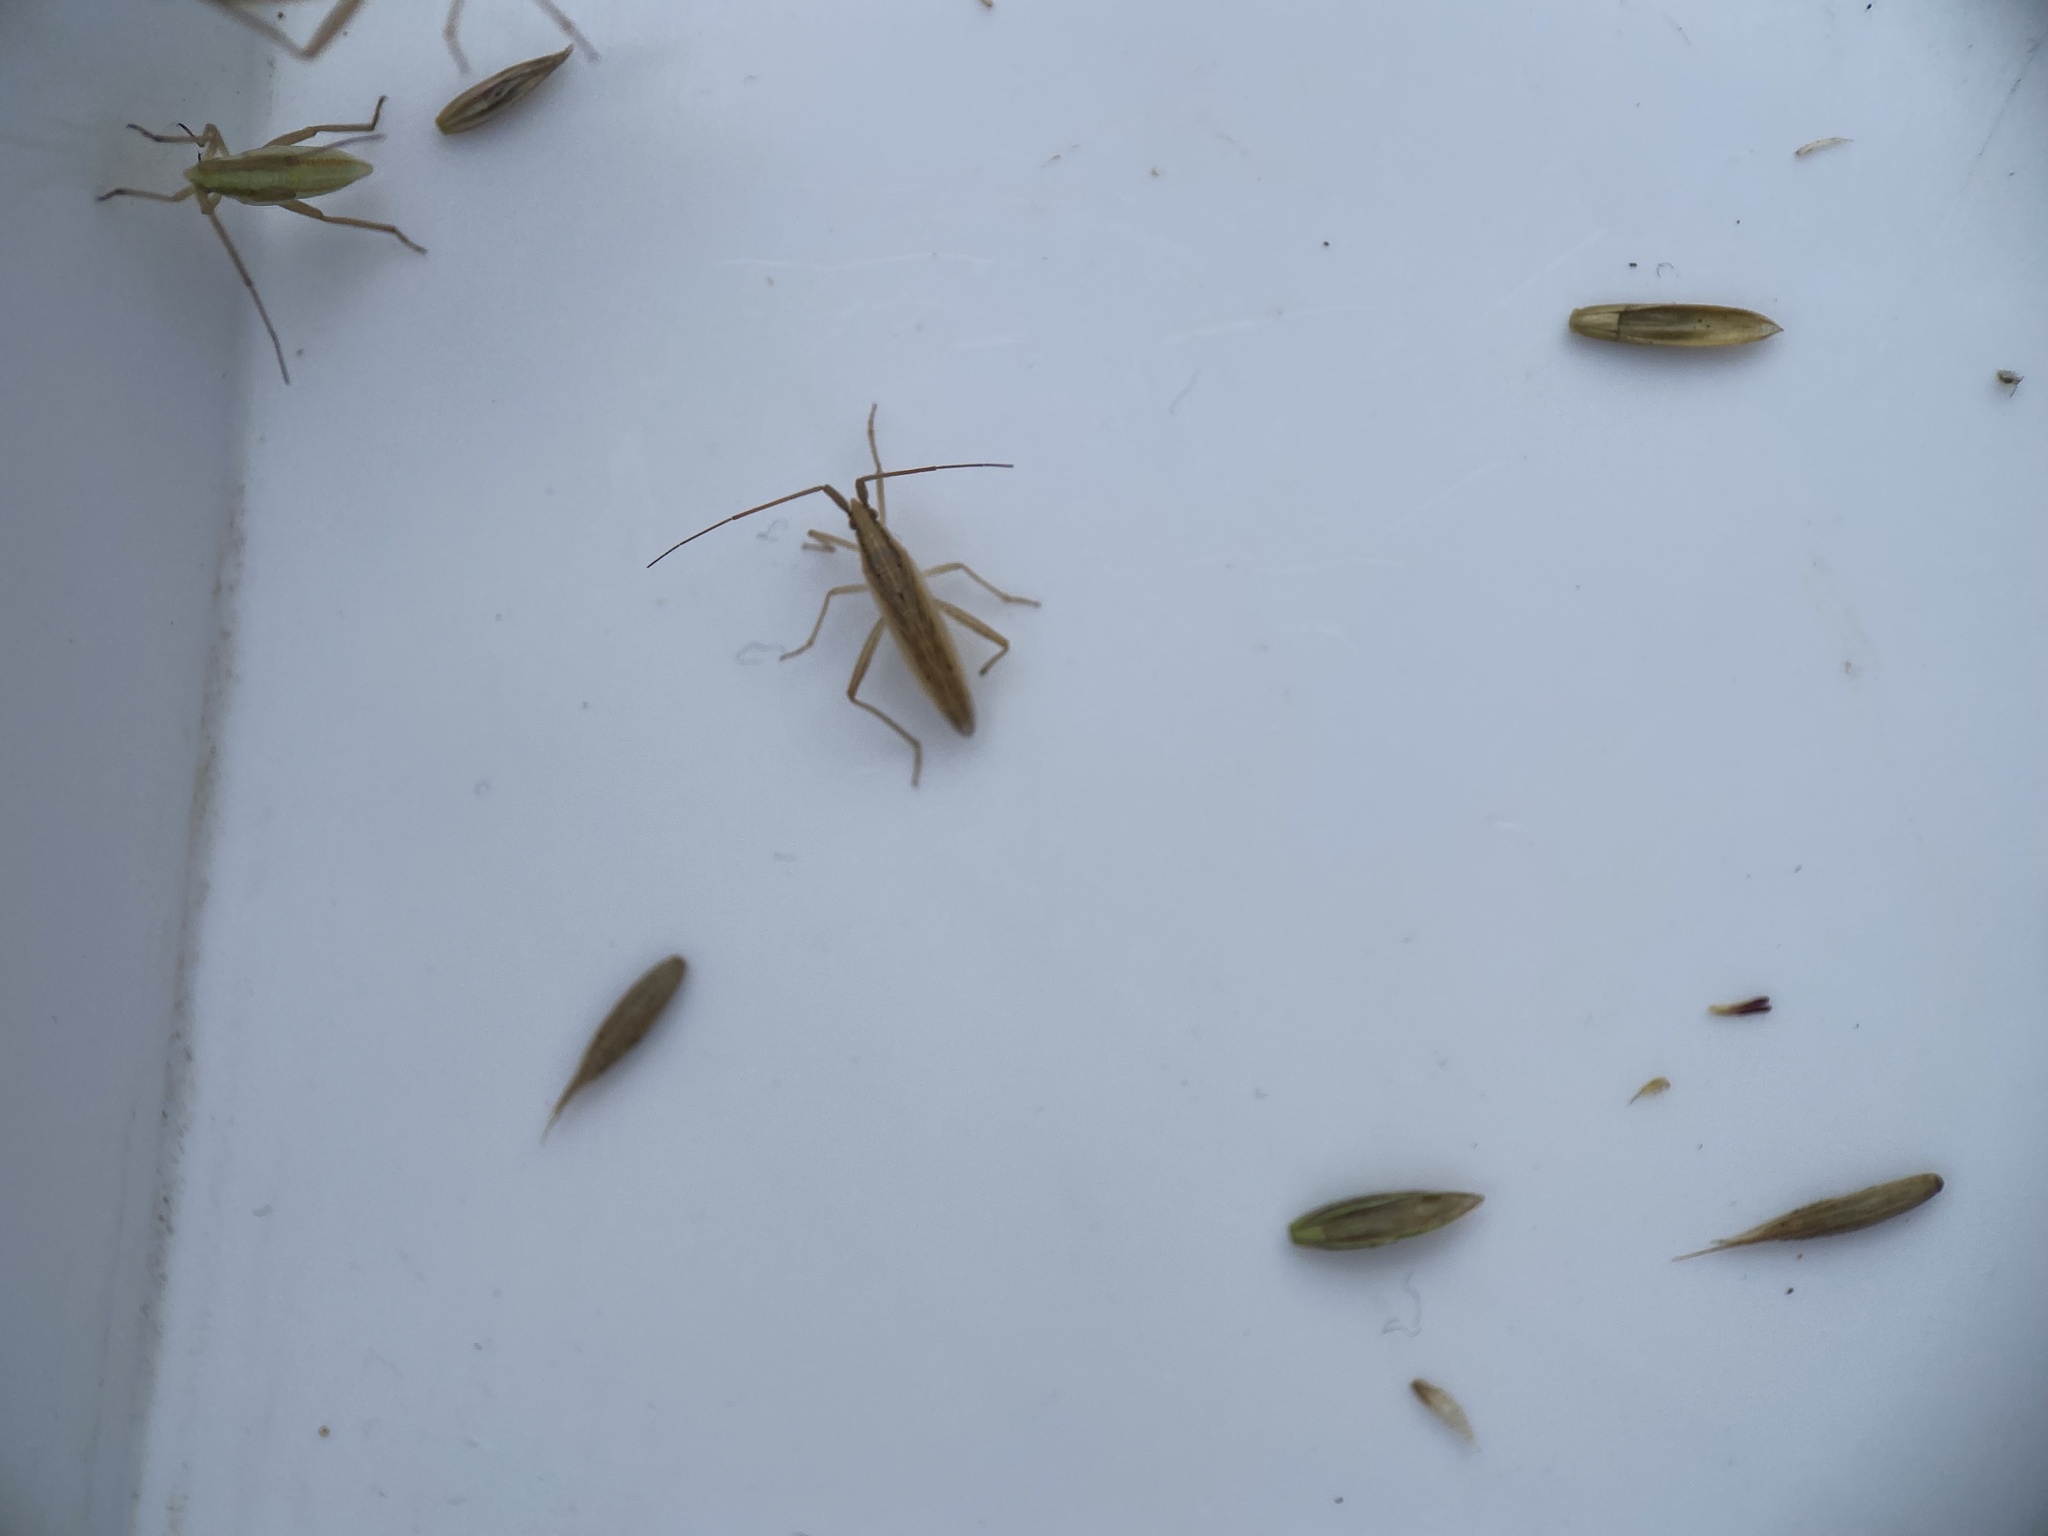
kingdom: Animalia
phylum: Arthropoda
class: Insecta
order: Hemiptera
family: Miridae
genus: Stenodema
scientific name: Stenodema laevigata
